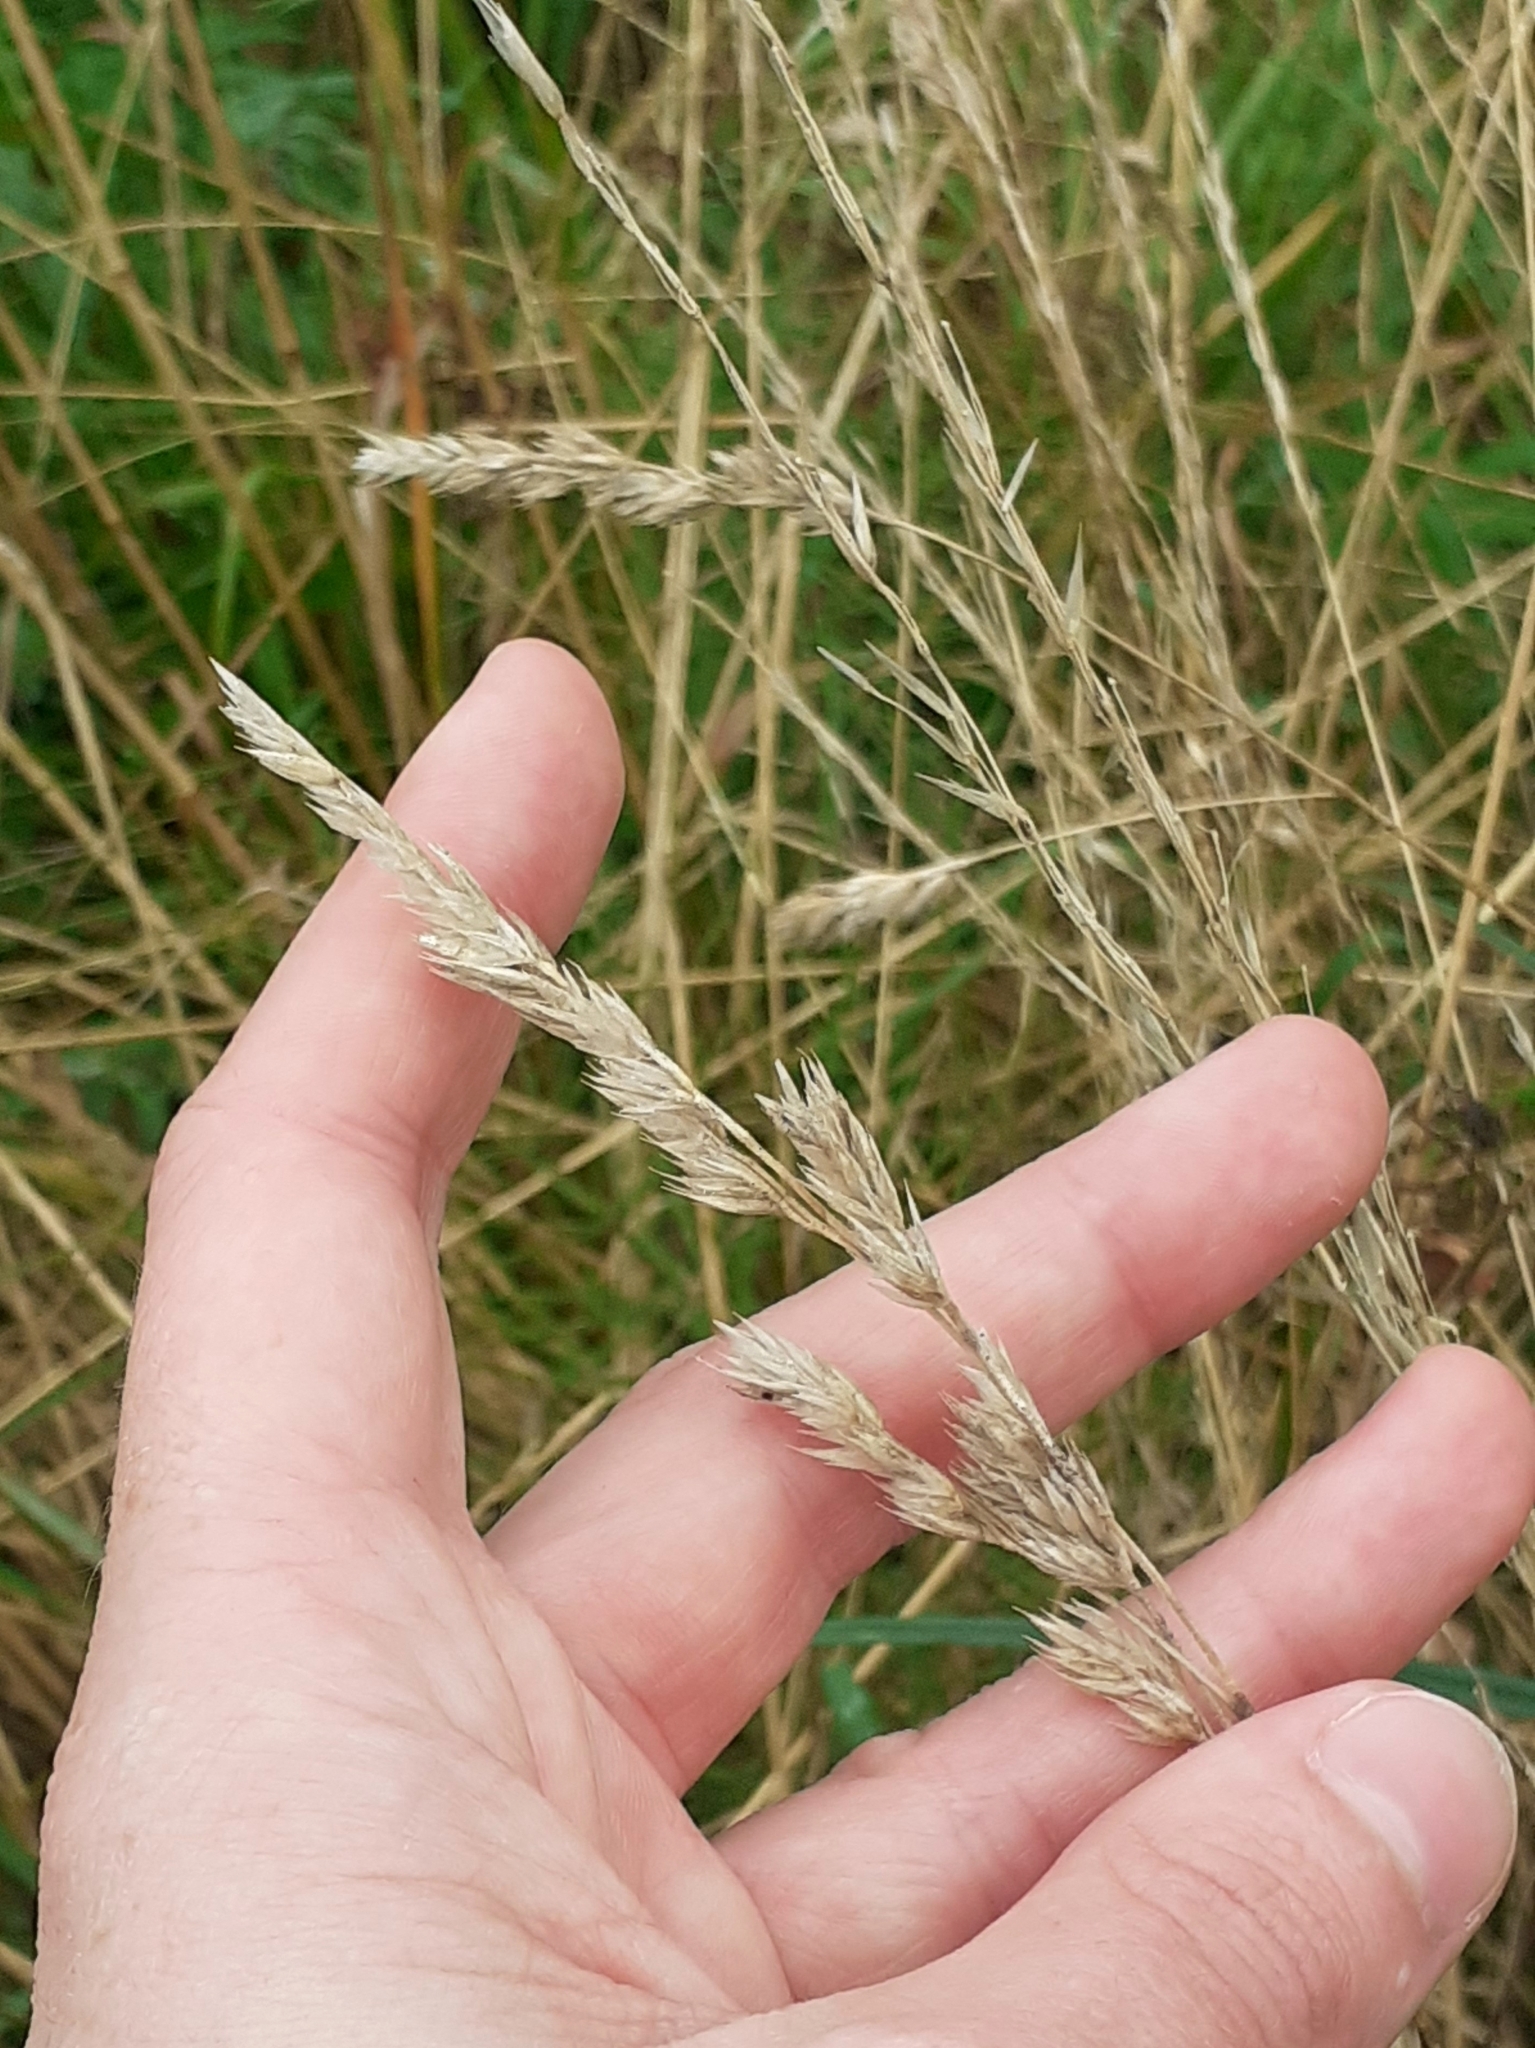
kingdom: Plantae
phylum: Tracheophyta
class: Liliopsida
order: Poales
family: Poaceae
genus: Dactylis
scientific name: Dactylis glomerata
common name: Orchardgrass
